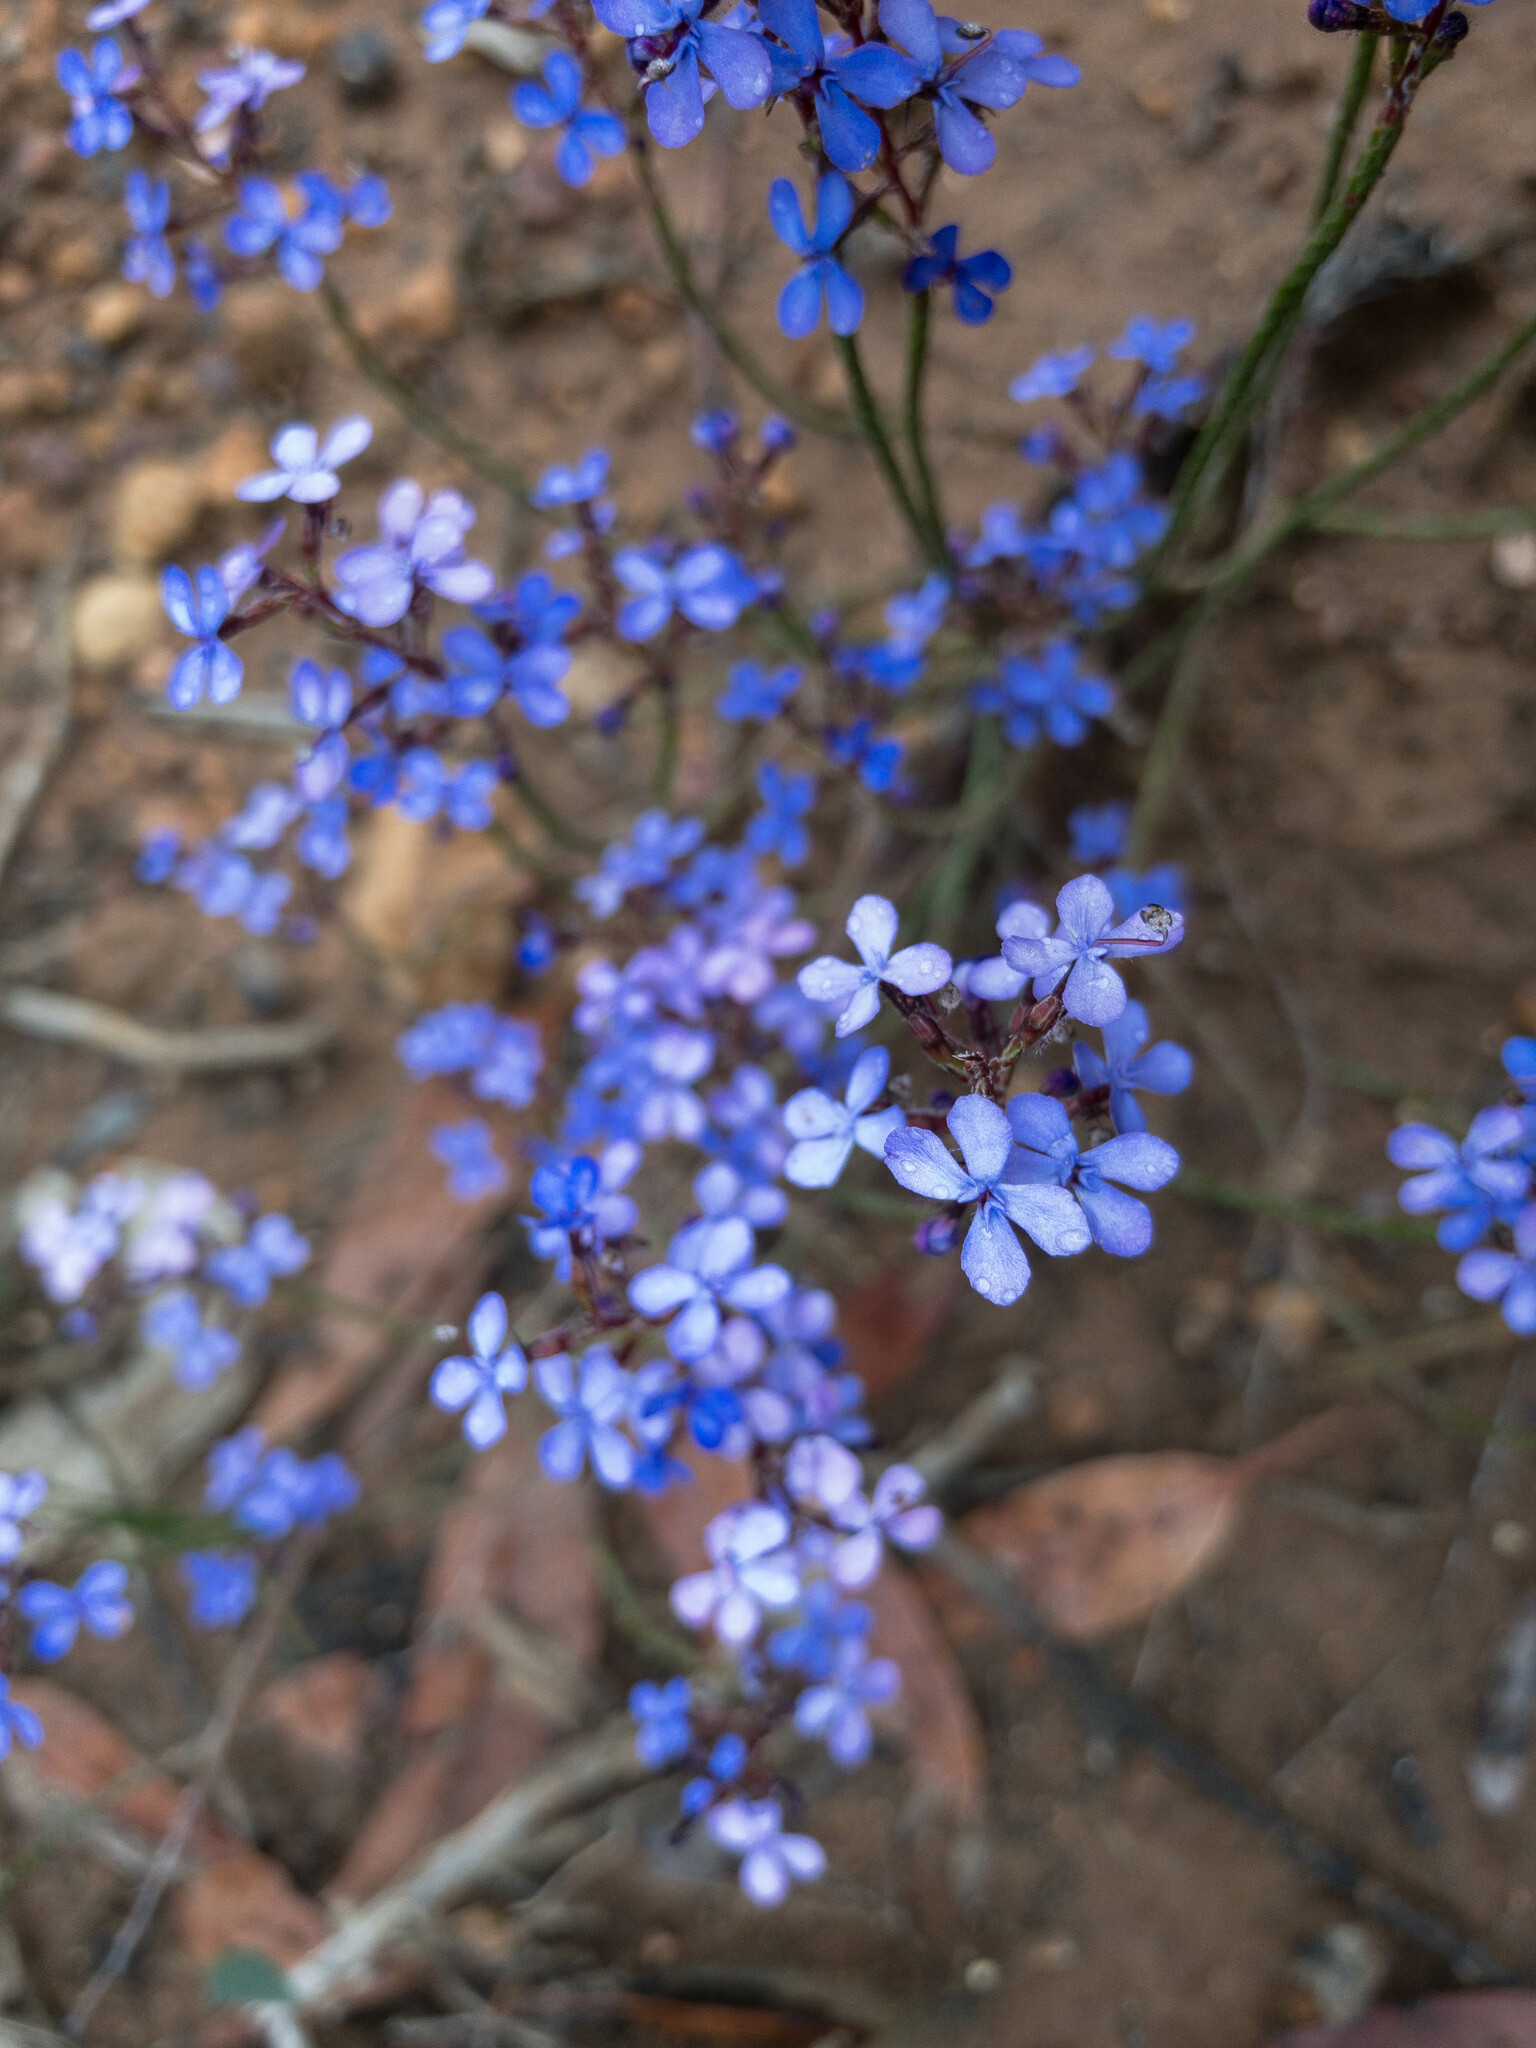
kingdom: Plantae
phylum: Tracheophyta
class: Magnoliopsida
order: Asterales
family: Stylidiaceae
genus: Stylidium
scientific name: Stylidium imbricatum
